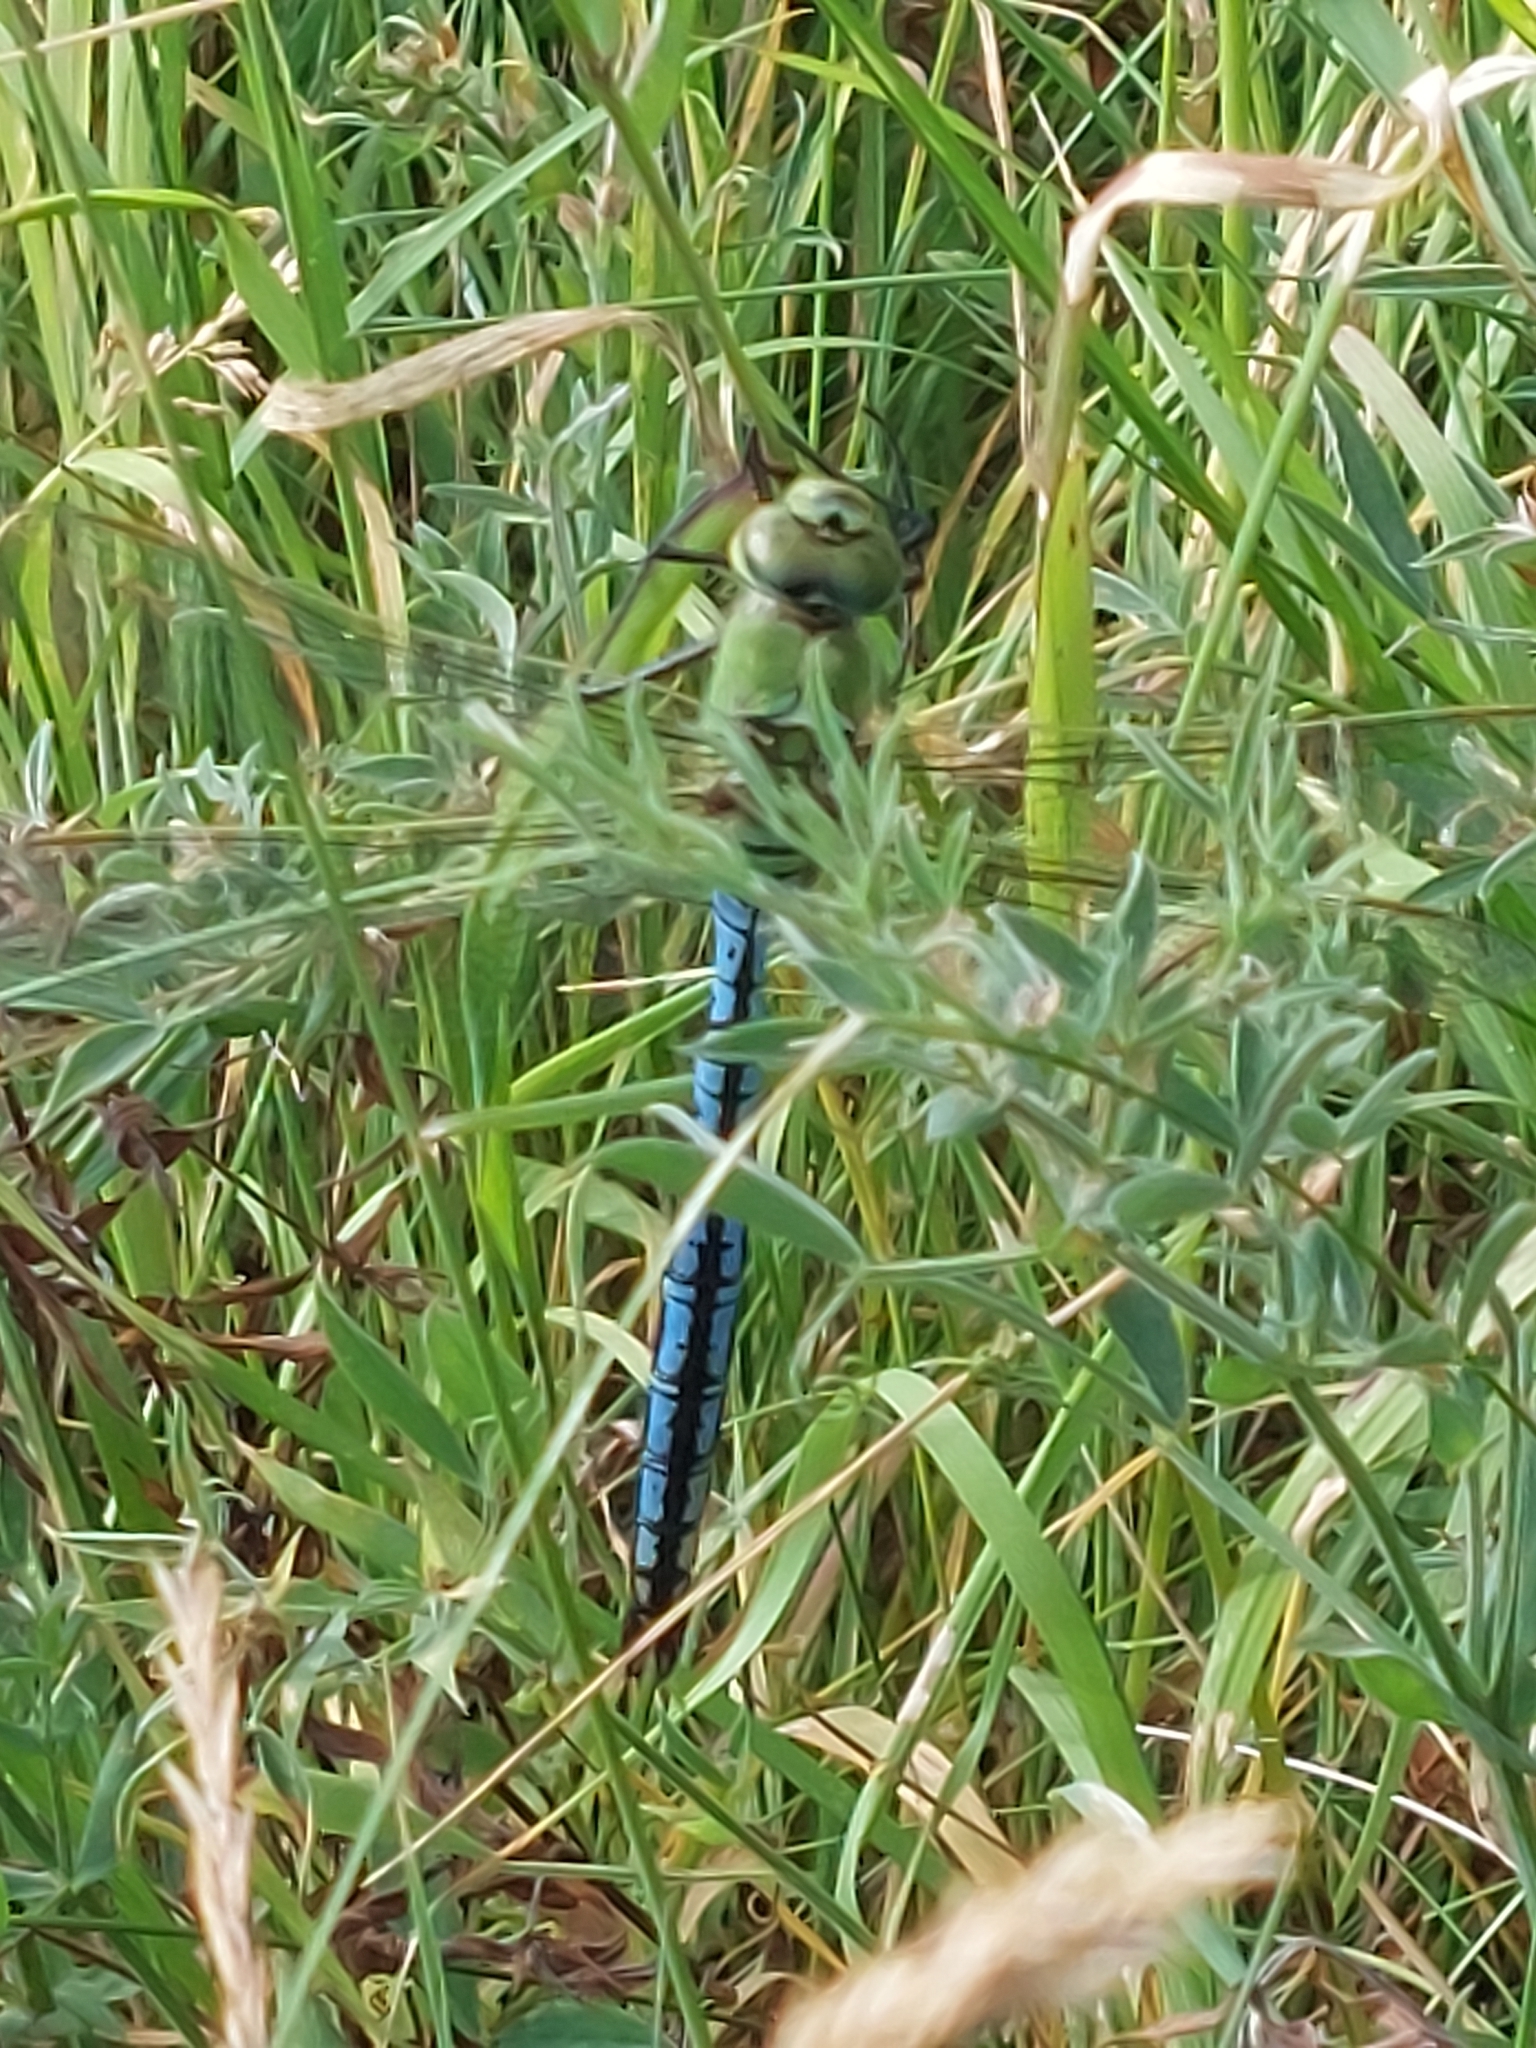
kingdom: Animalia
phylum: Arthropoda
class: Insecta
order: Odonata
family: Aeshnidae
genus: Anax
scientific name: Anax imperator
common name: Emperor dragonfly
